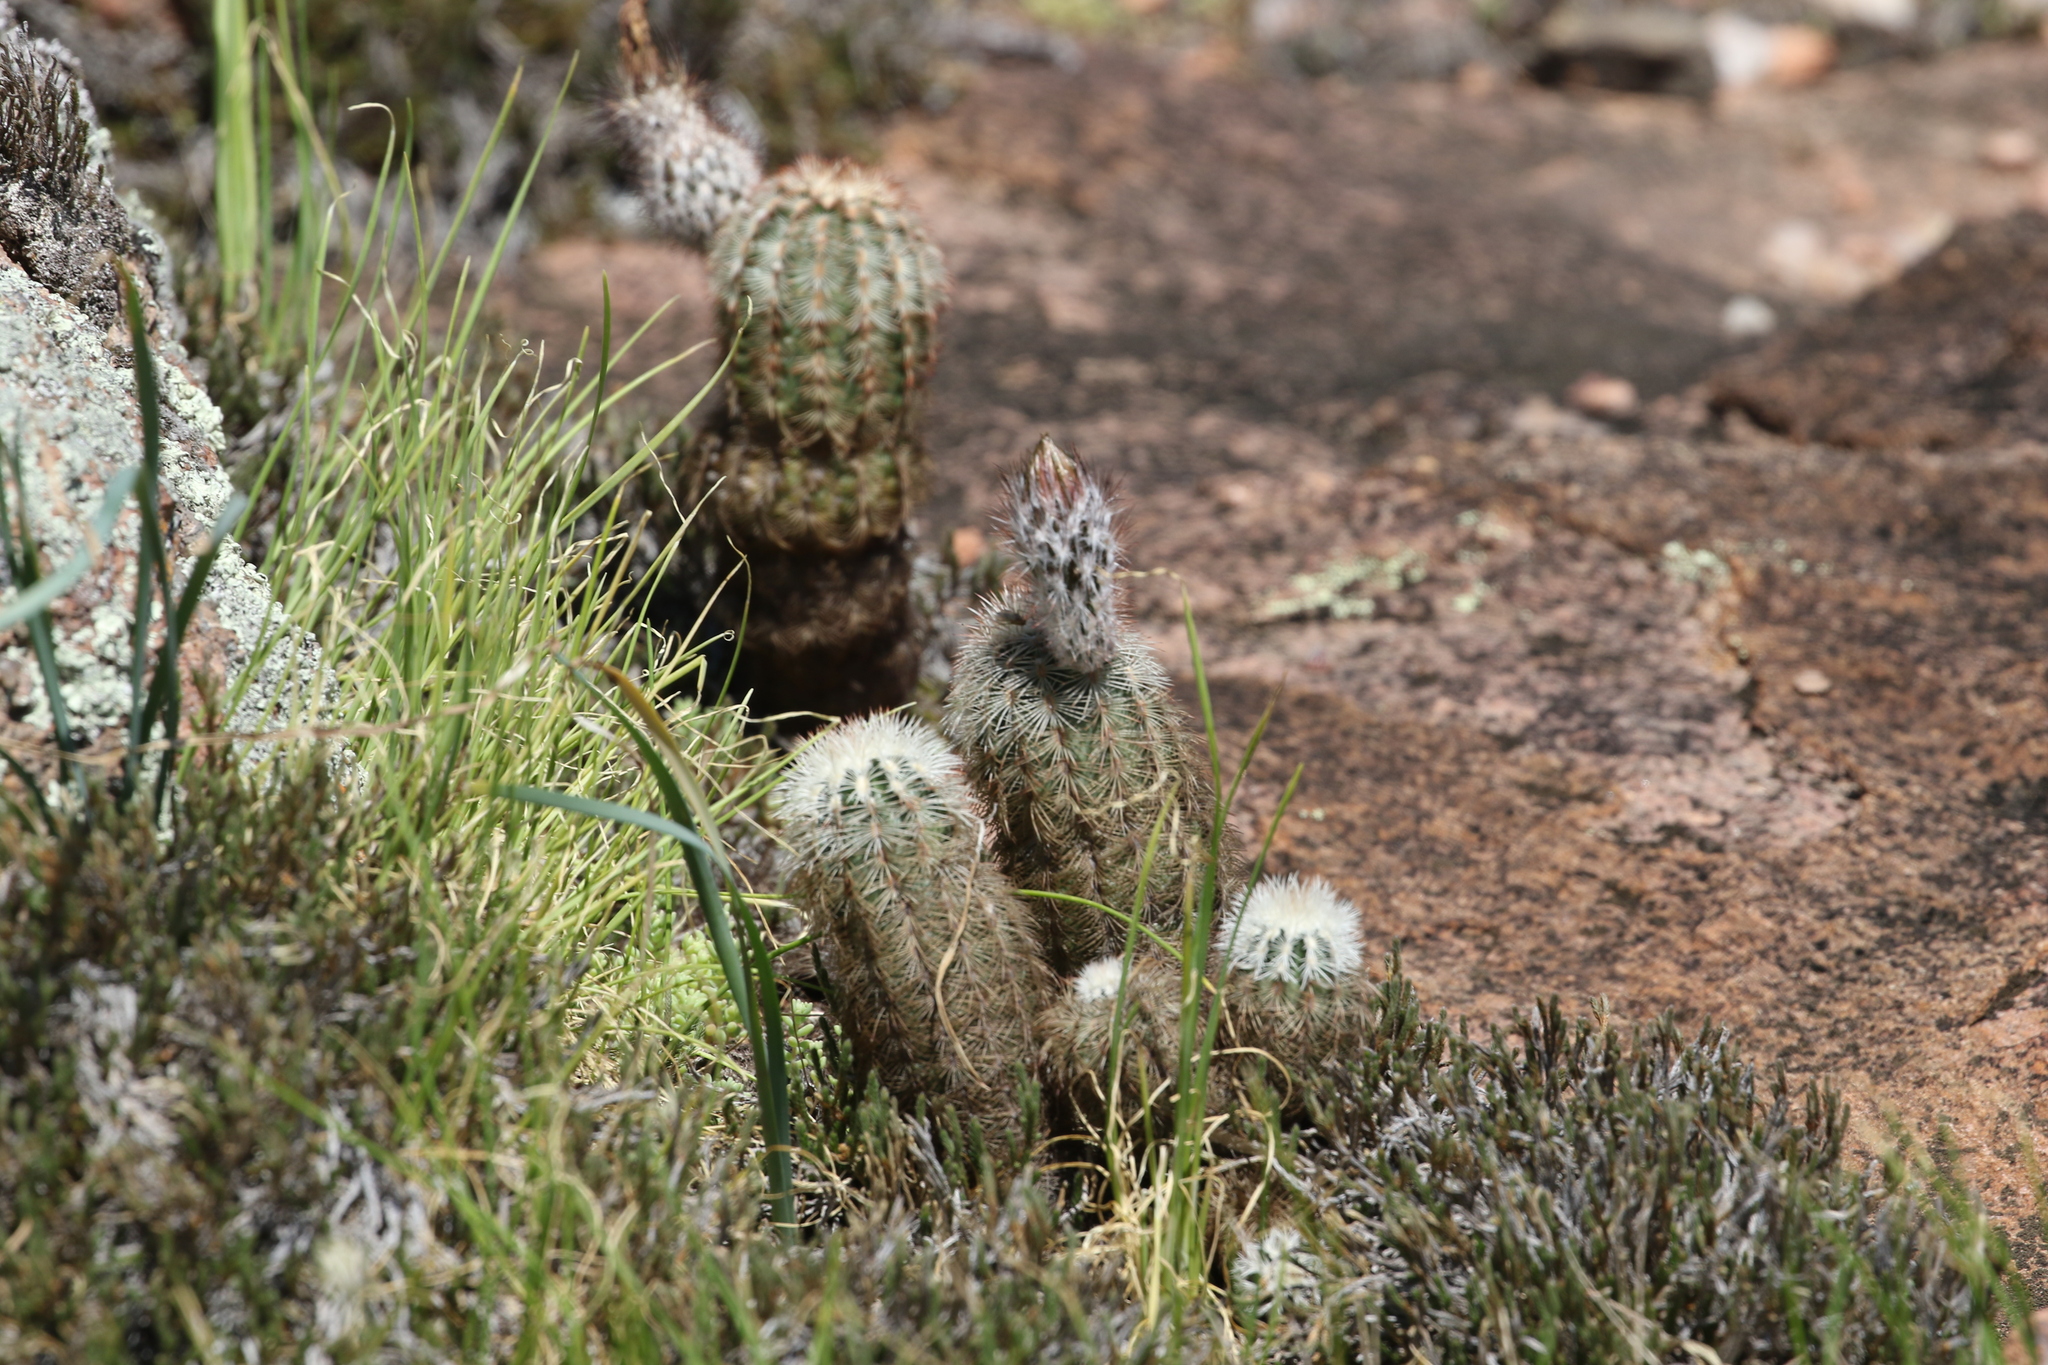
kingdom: Plantae
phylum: Tracheophyta
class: Magnoliopsida
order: Caryophyllales
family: Cactaceae
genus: Echinocereus
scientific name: Echinocereus reichenbachii
